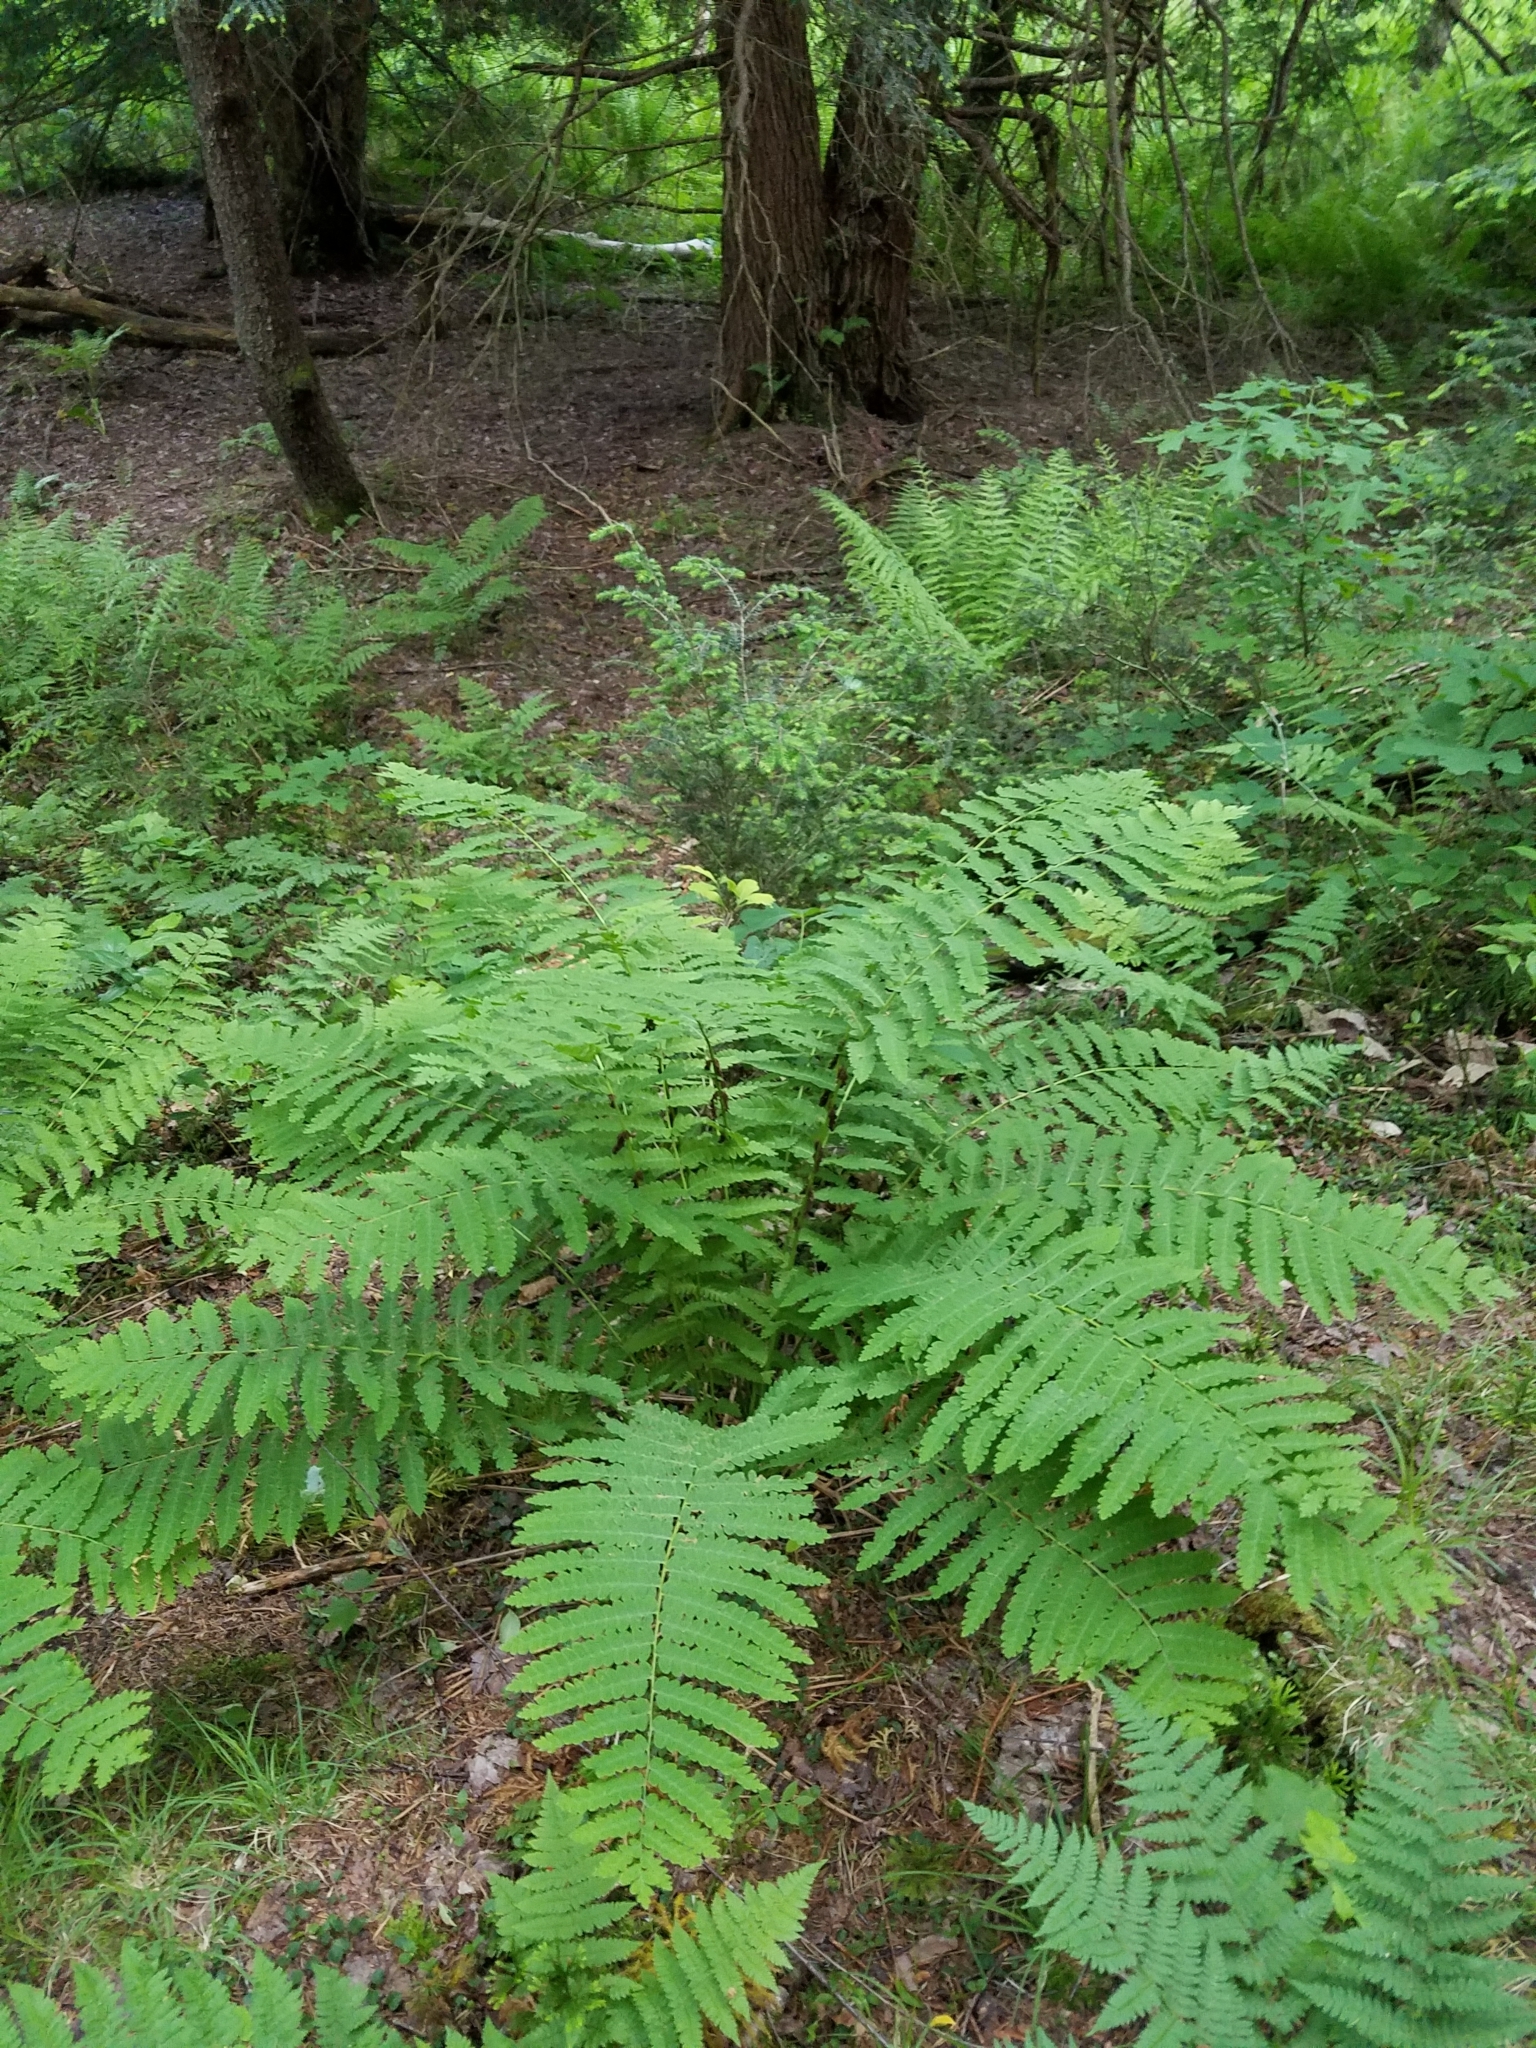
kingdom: Plantae
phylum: Tracheophyta
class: Polypodiopsida
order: Osmundales
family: Osmundaceae
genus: Claytosmunda
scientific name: Claytosmunda claytoniana
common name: Clayton's fern
